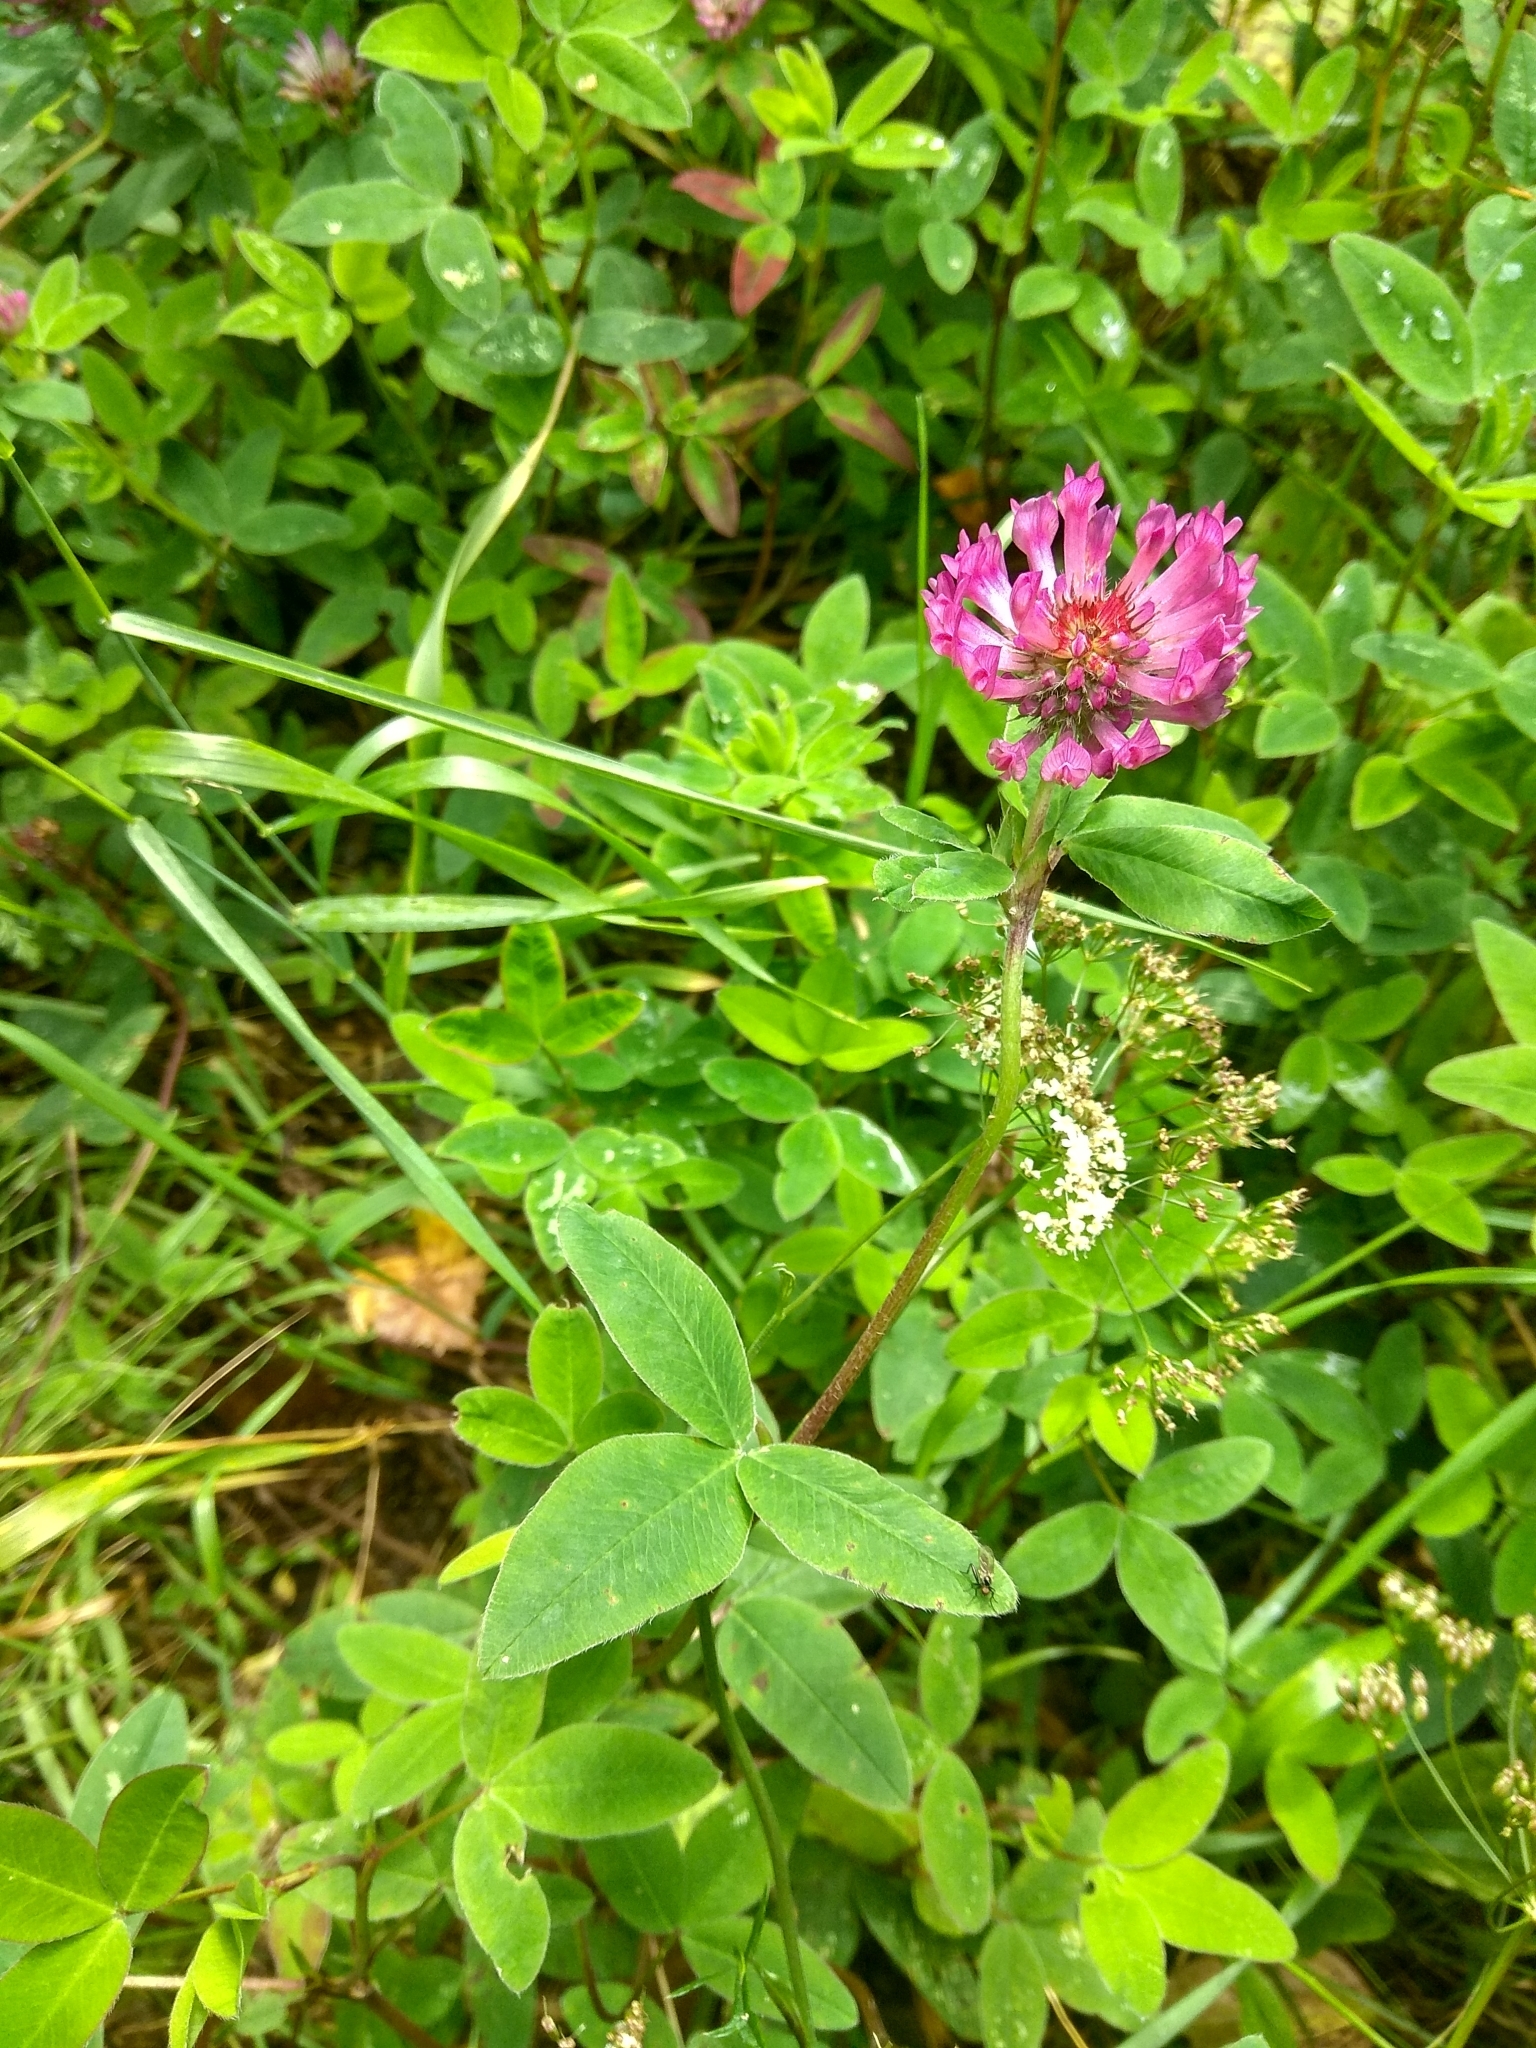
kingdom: Plantae
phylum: Tracheophyta
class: Magnoliopsida
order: Fabales
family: Fabaceae
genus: Trifolium
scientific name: Trifolium medium
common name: Zigzag clover
